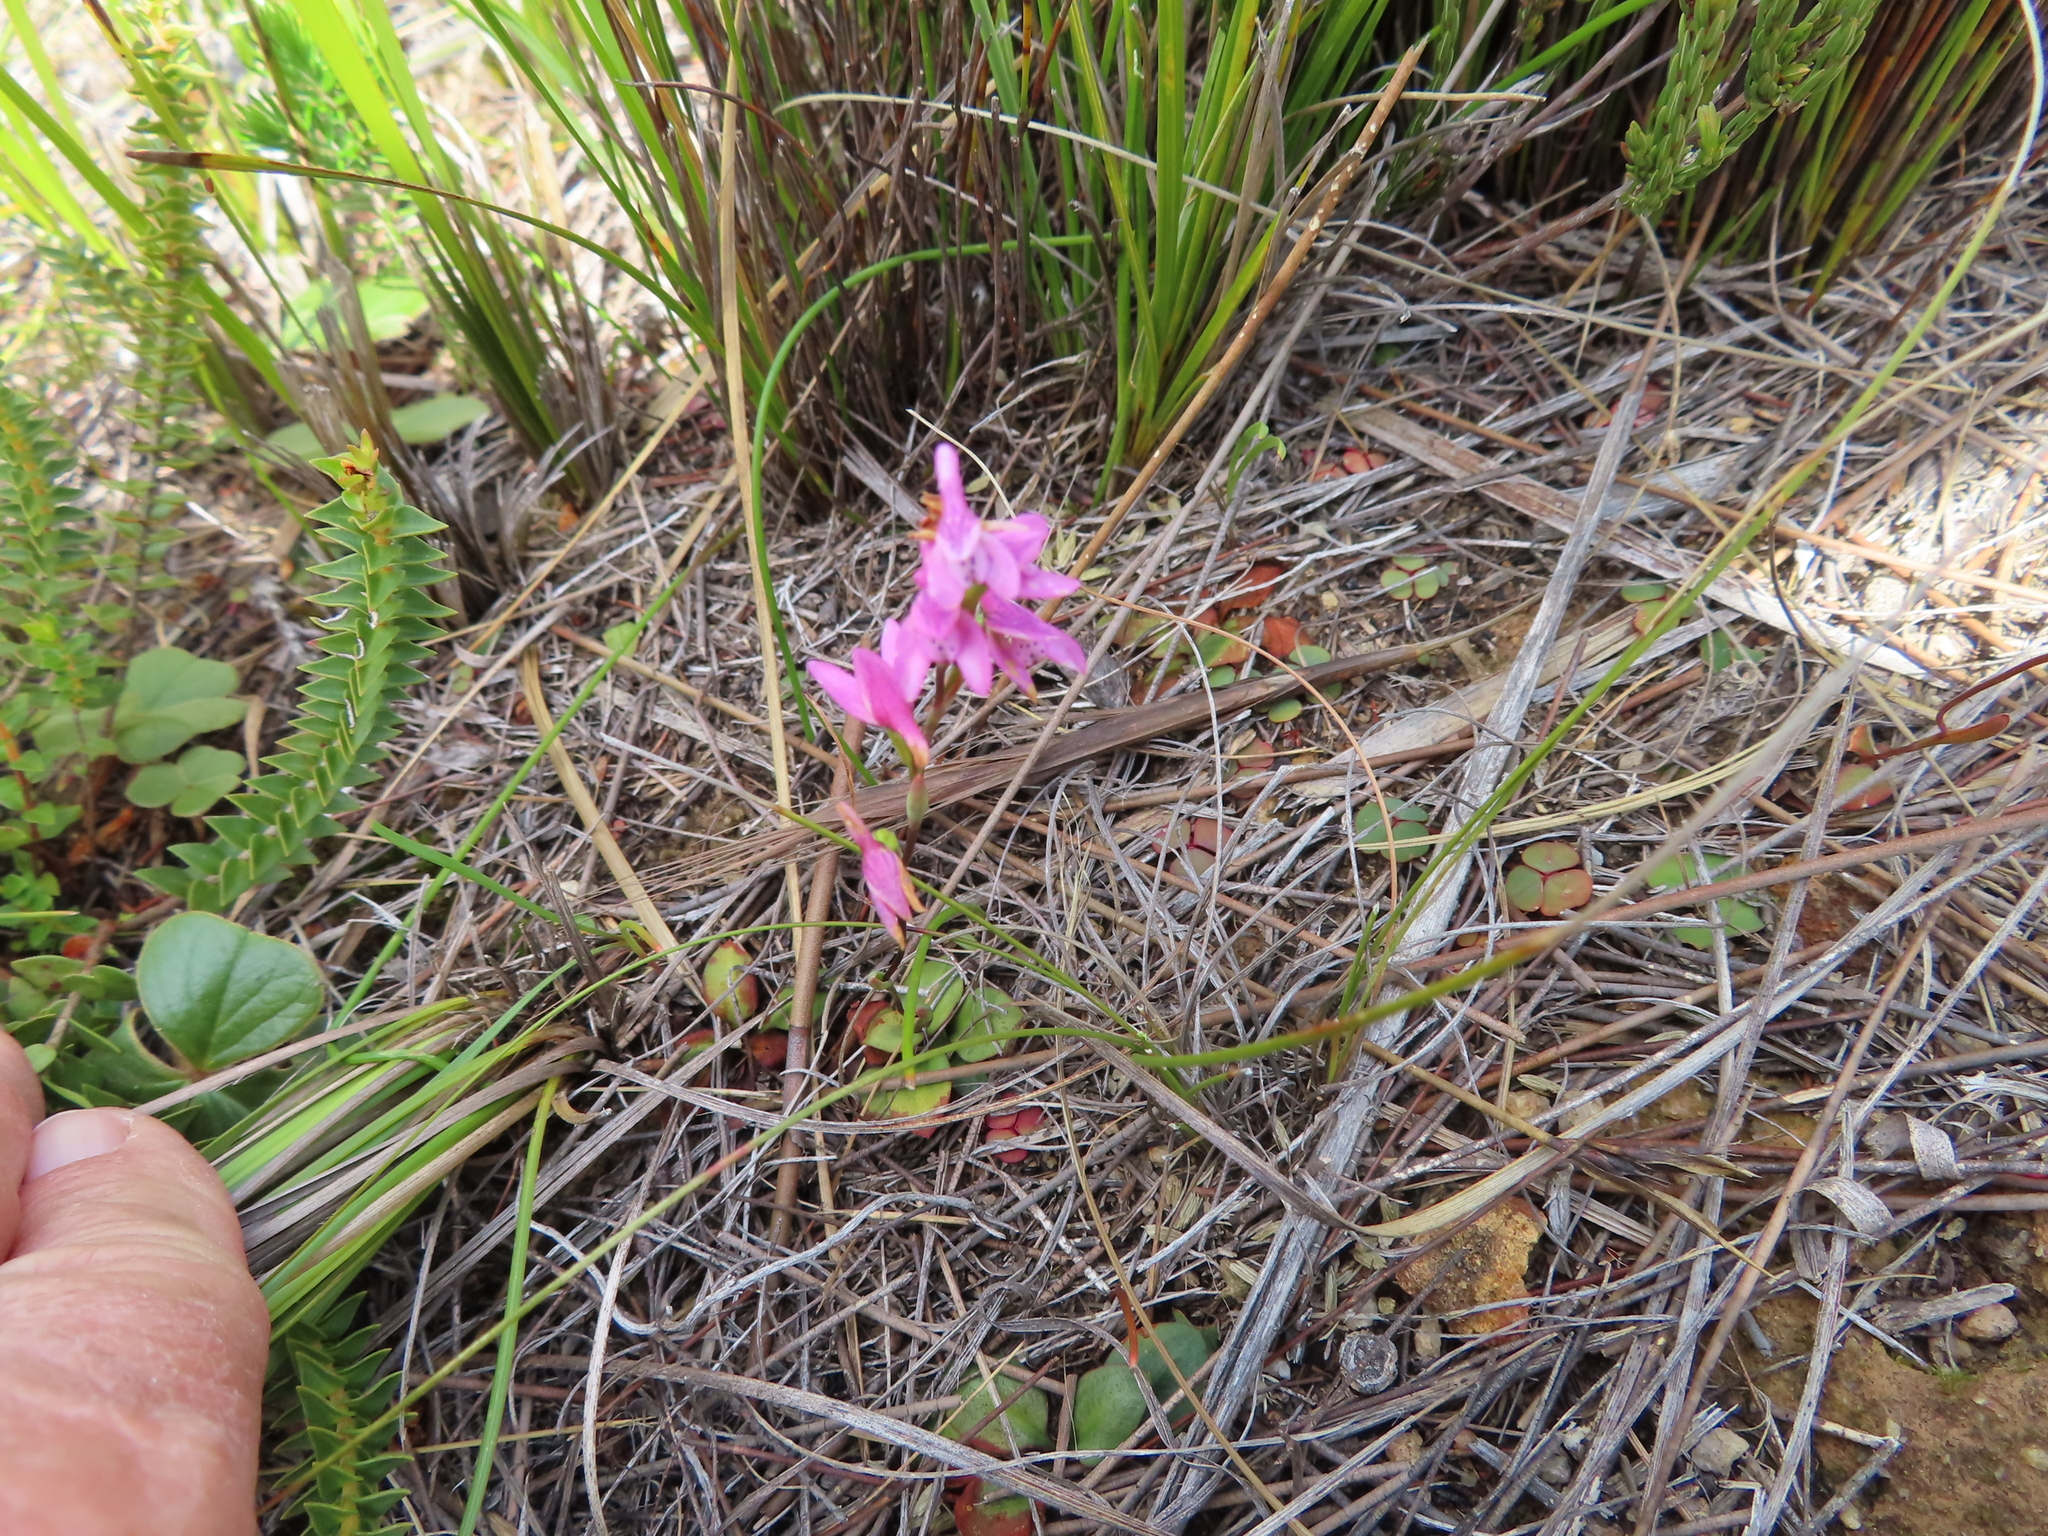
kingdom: Plantae
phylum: Tracheophyta
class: Liliopsida
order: Asparagales
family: Orchidaceae
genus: Disa
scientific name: Disa obliqua
